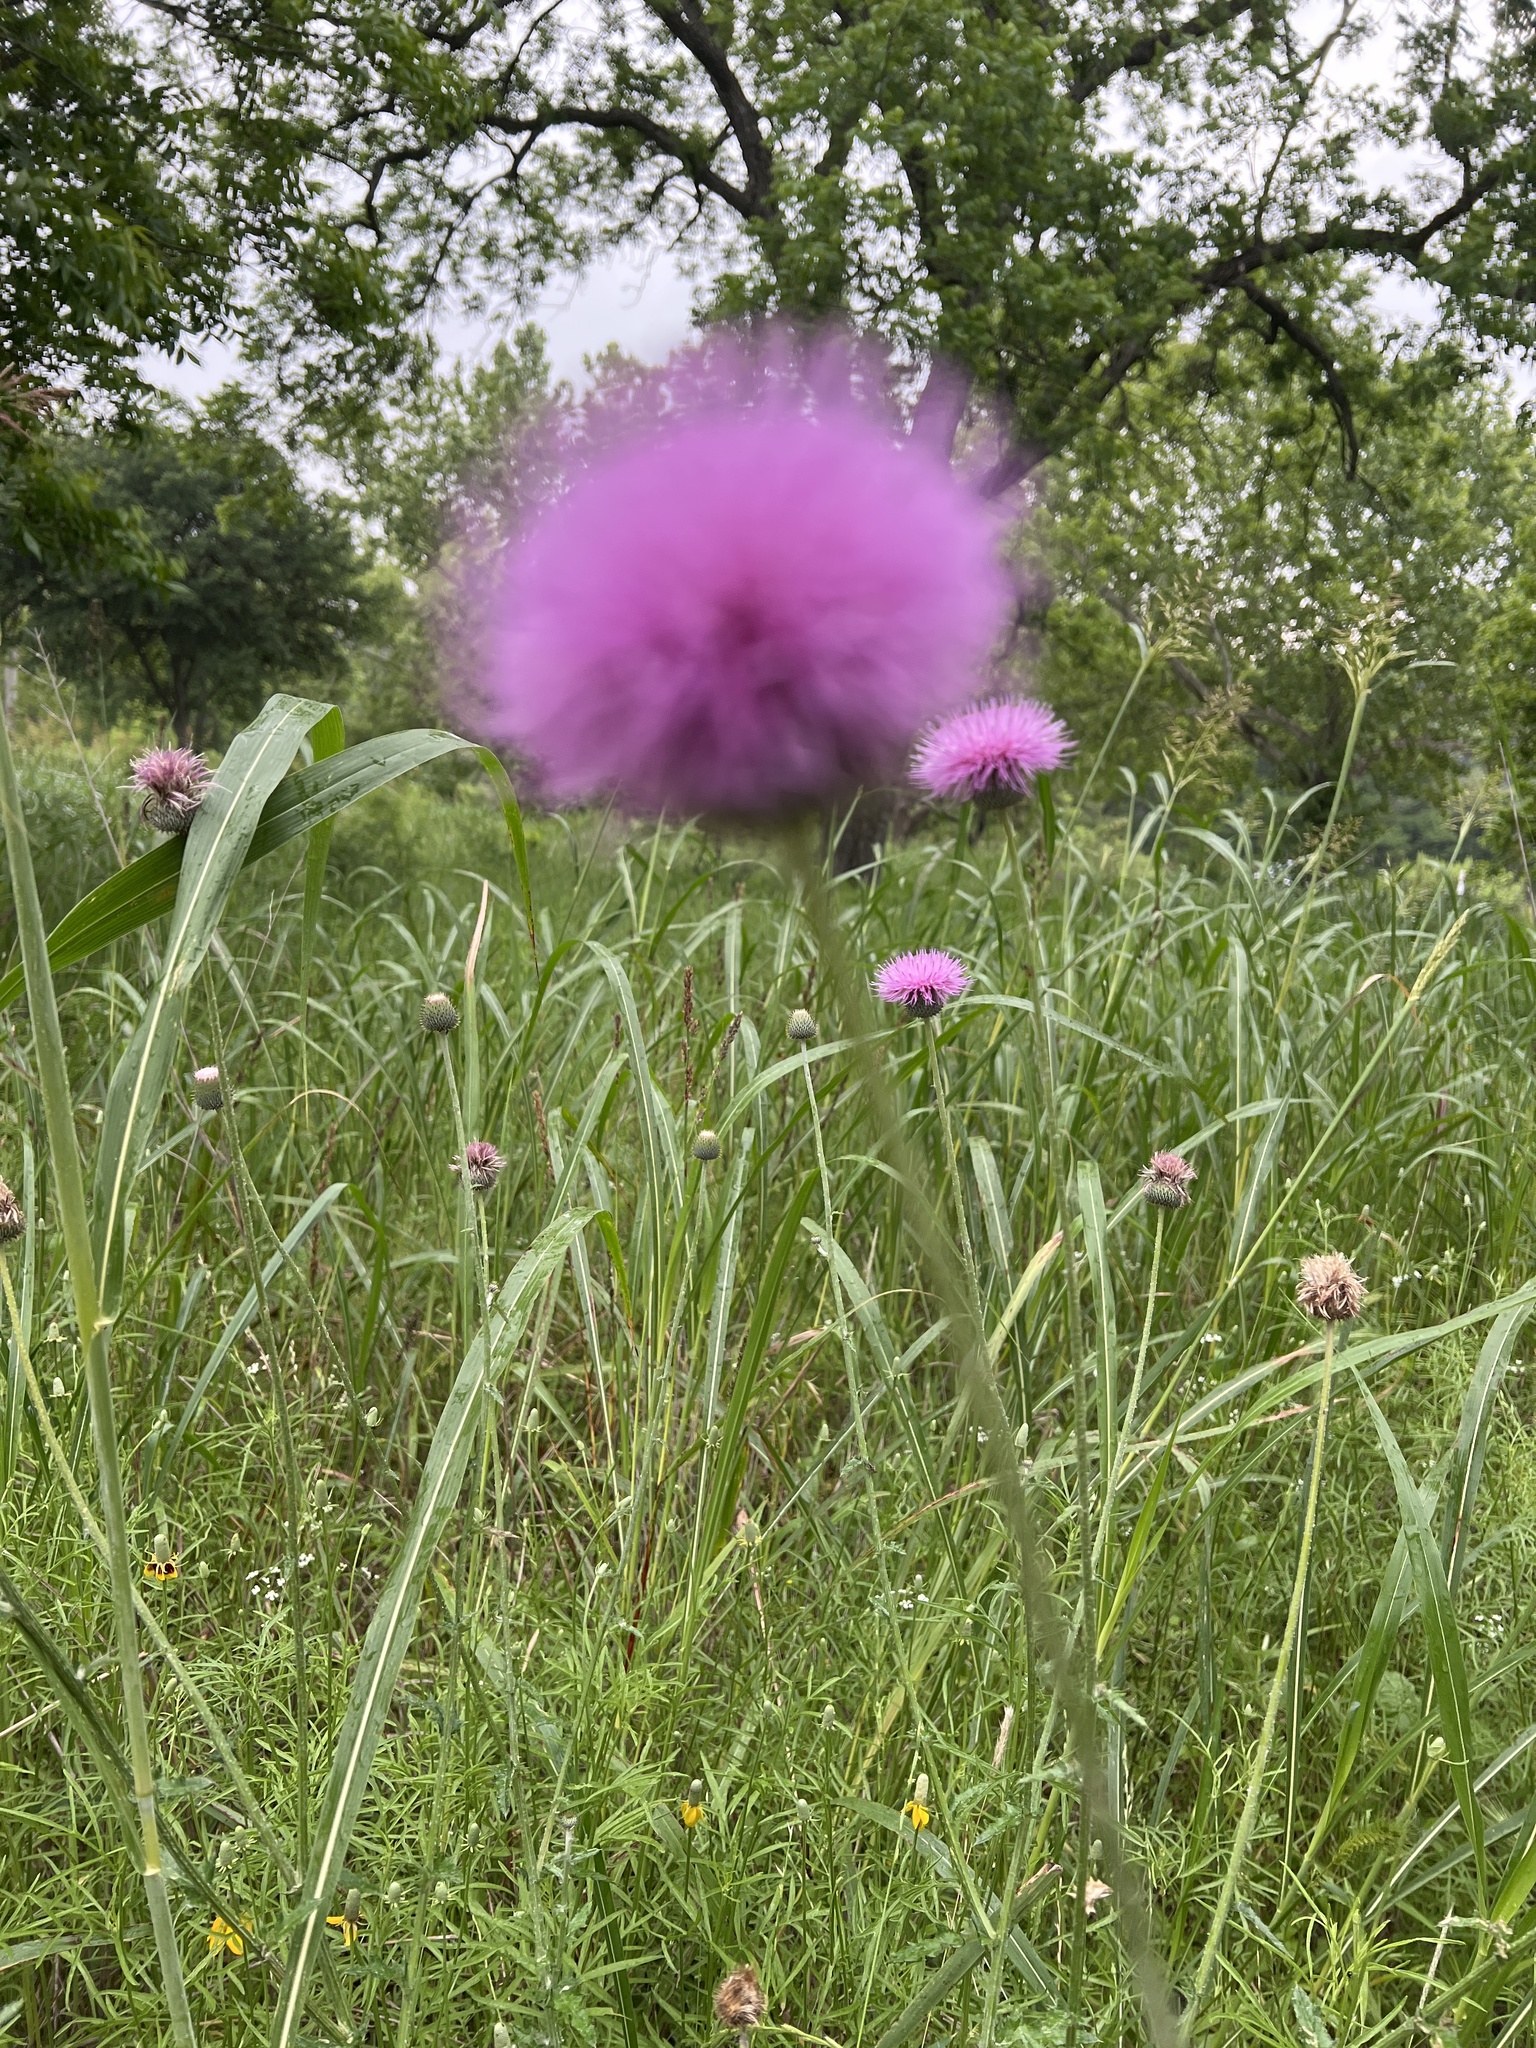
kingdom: Plantae
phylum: Tracheophyta
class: Magnoliopsida
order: Asterales
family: Asteraceae
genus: Cirsium
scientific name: Cirsium texanum
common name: Texas purple thistle
